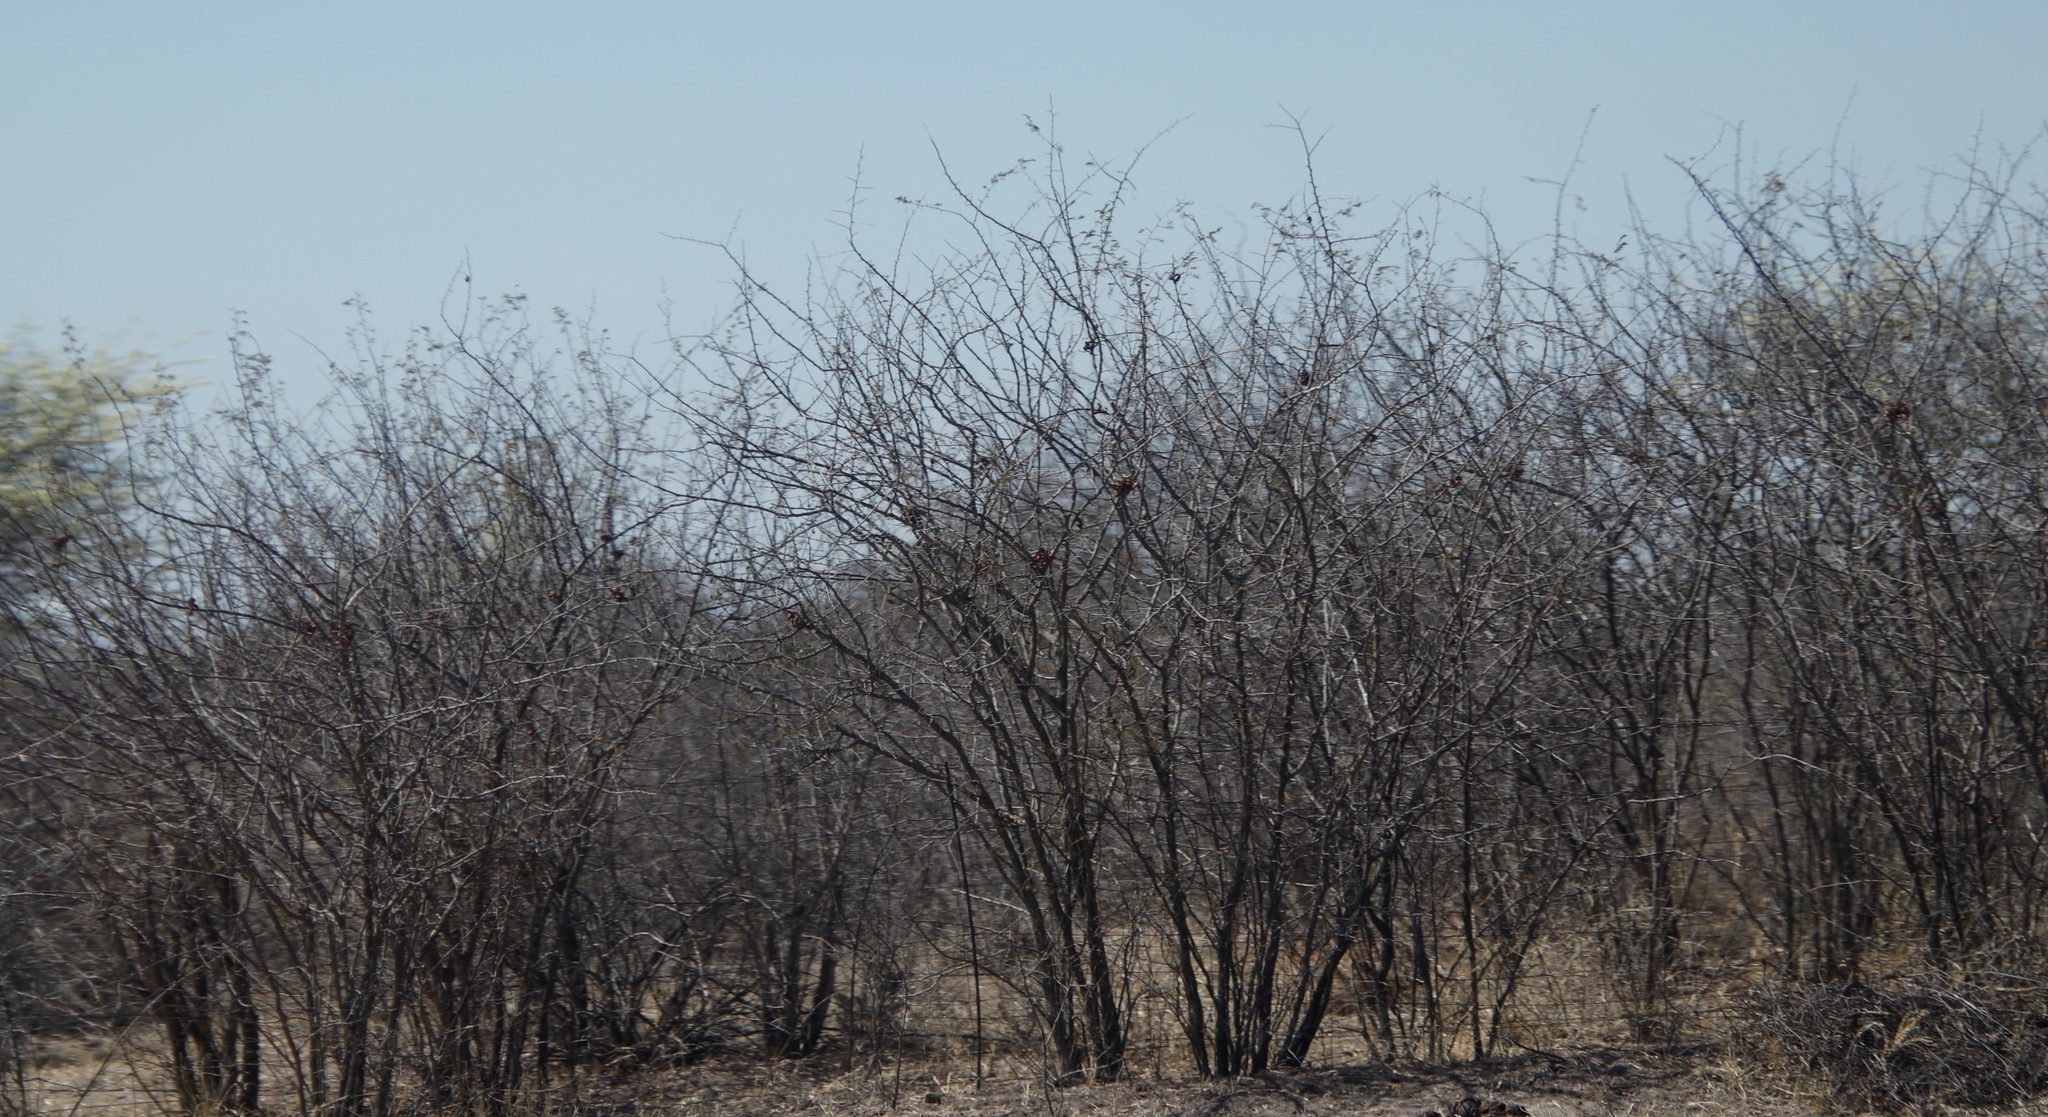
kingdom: Plantae
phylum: Tracheophyta
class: Magnoliopsida
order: Fabales
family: Fabaceae
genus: Dichrostachys
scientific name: Dichrostachys cinerea
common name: Sicklebush
